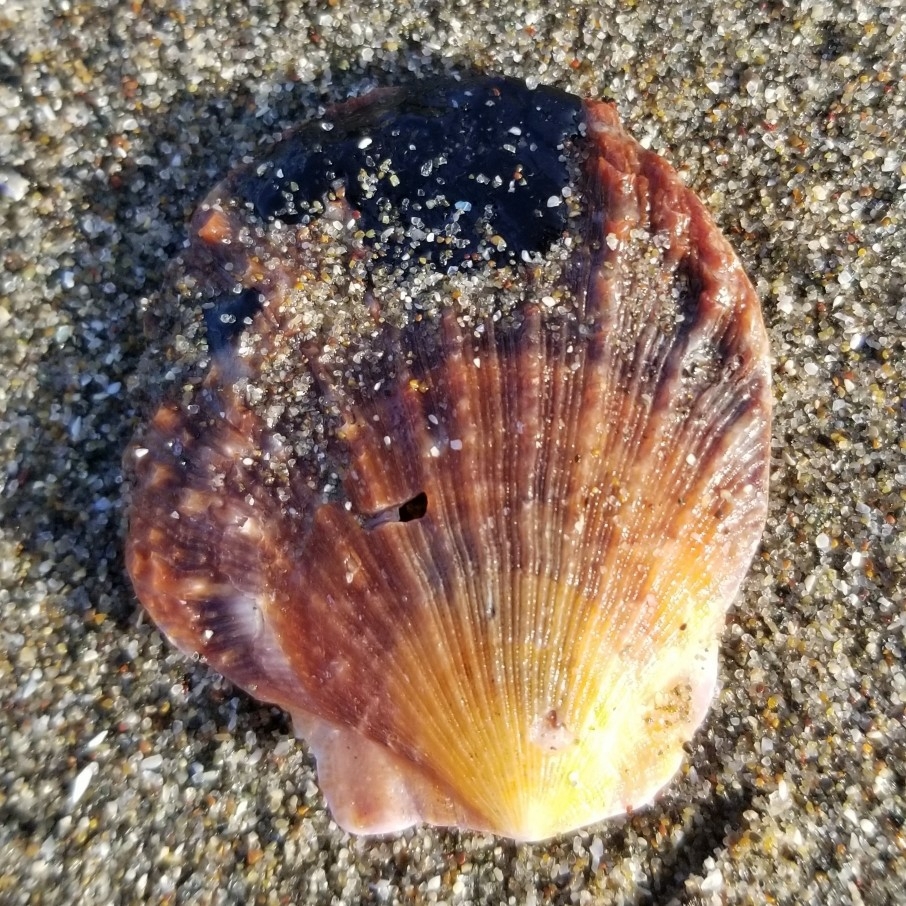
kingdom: Animalia
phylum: Mollusca
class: Bivalvia
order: Pectinida
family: Pectinidae
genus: Crassadoma
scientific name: Crassadoma gigantea
